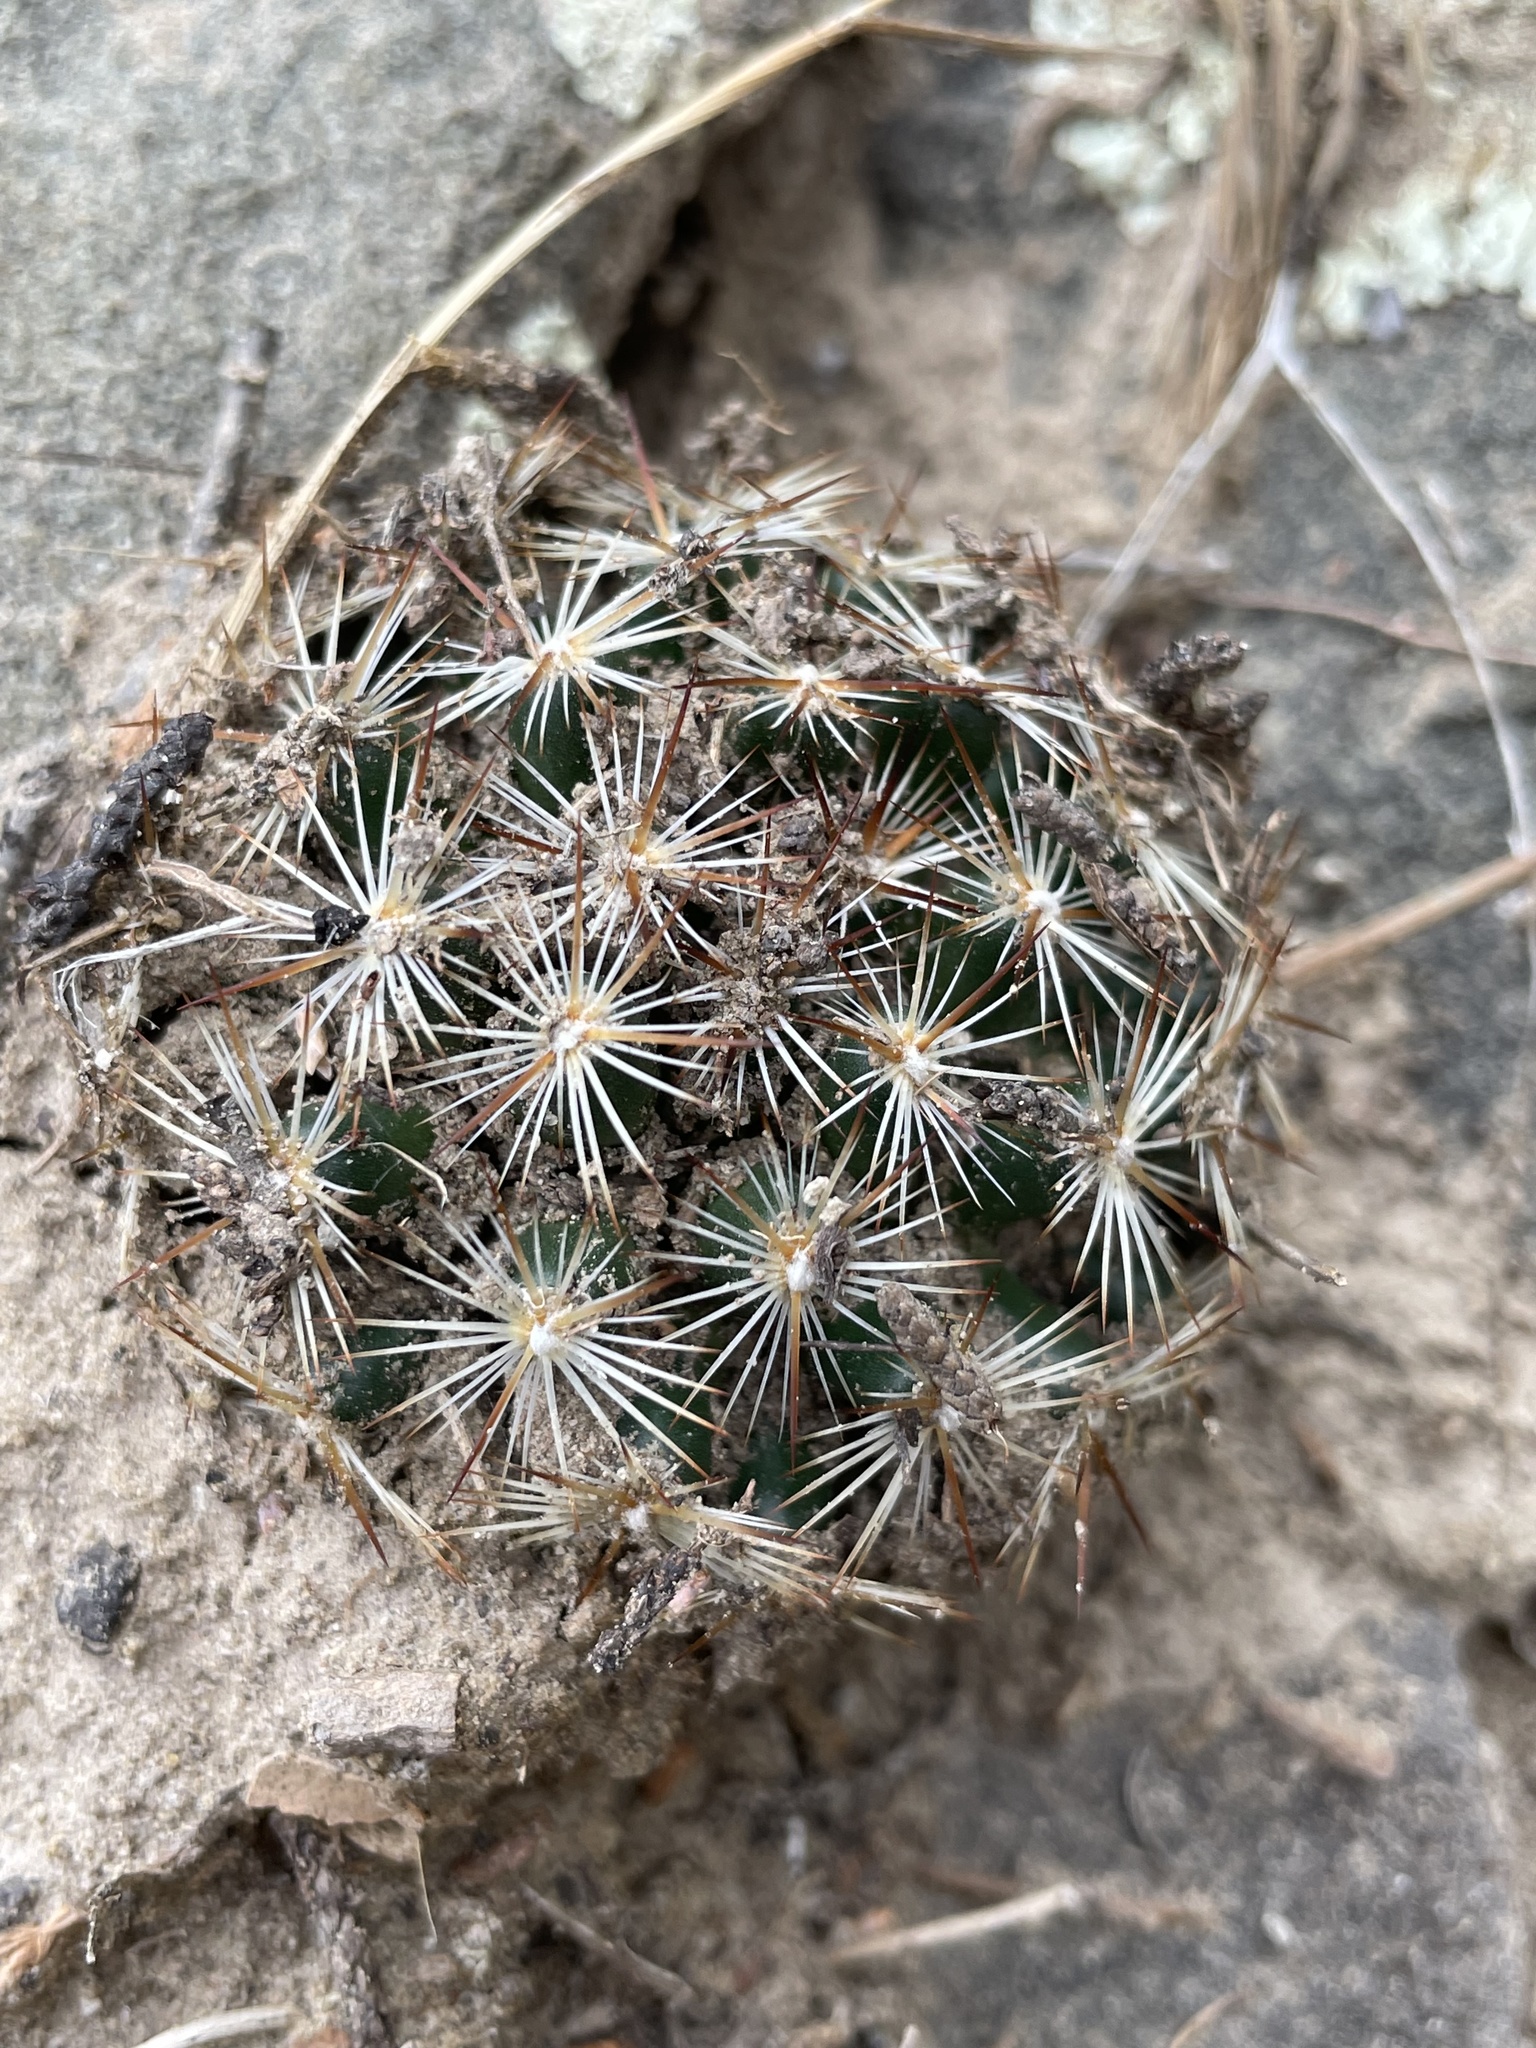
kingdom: Plantae
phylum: Tracheophyta
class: Magnoliopsida
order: Caryophyllales
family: Cactaceae
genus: Pelecyphora
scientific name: Pelecyphora vivipara
